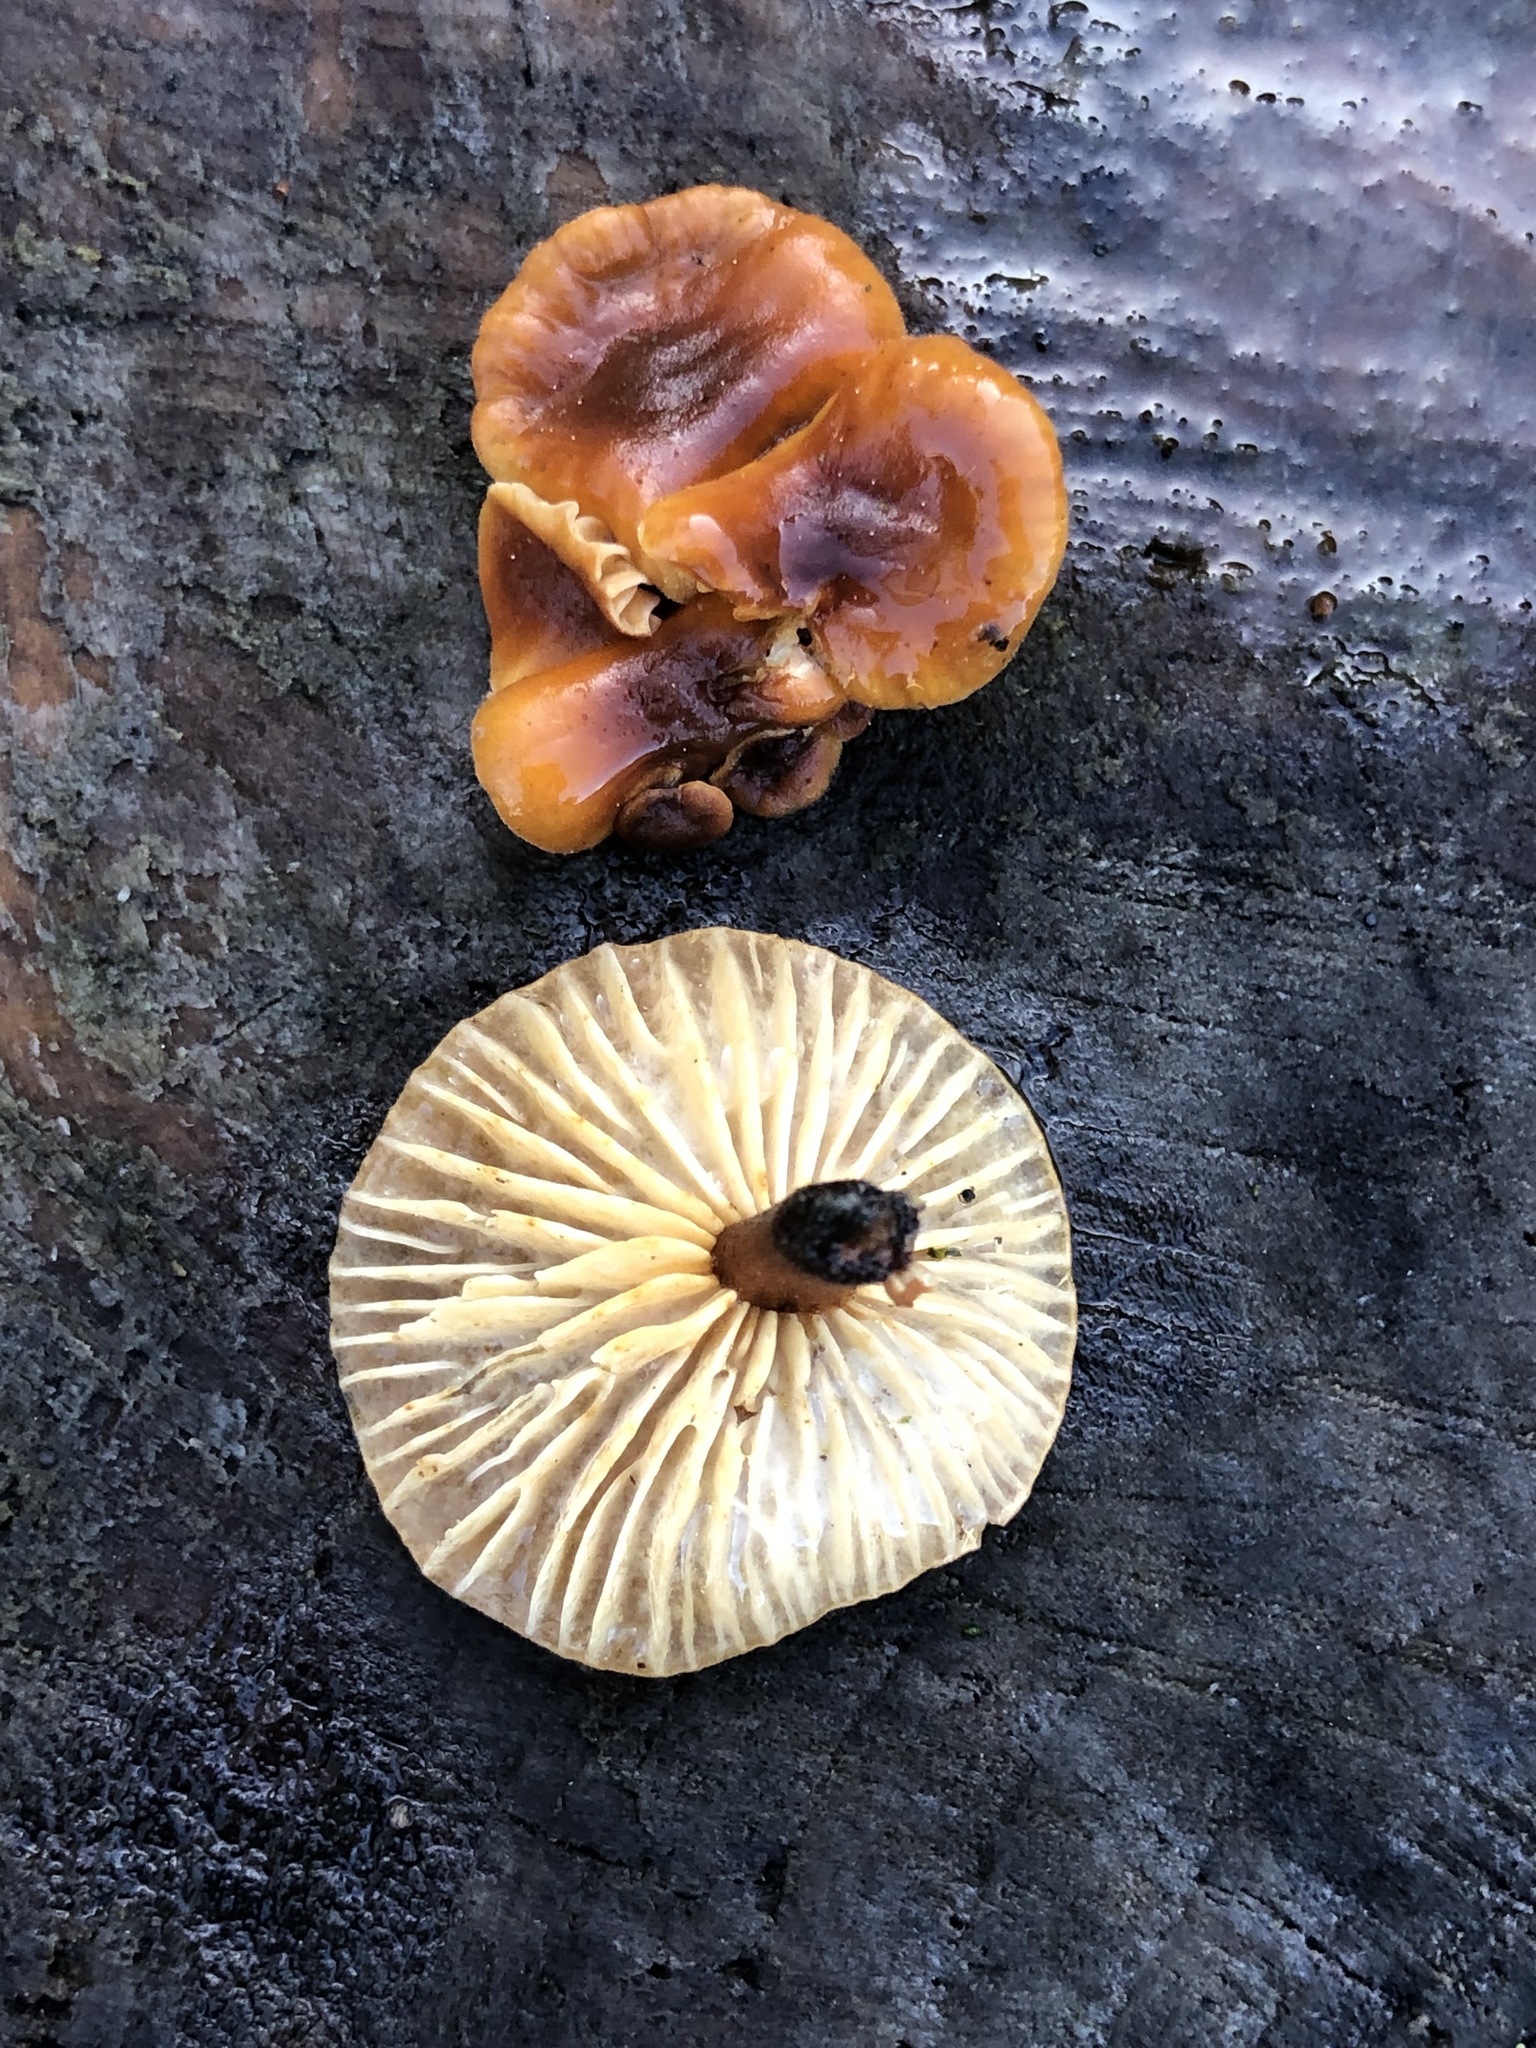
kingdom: Fungi
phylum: Basidiomycota
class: Agaricomycetes
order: Agaricales
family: Physalacriaceae
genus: Flammulina
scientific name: Flammulina velutipes
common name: Velvet shank
